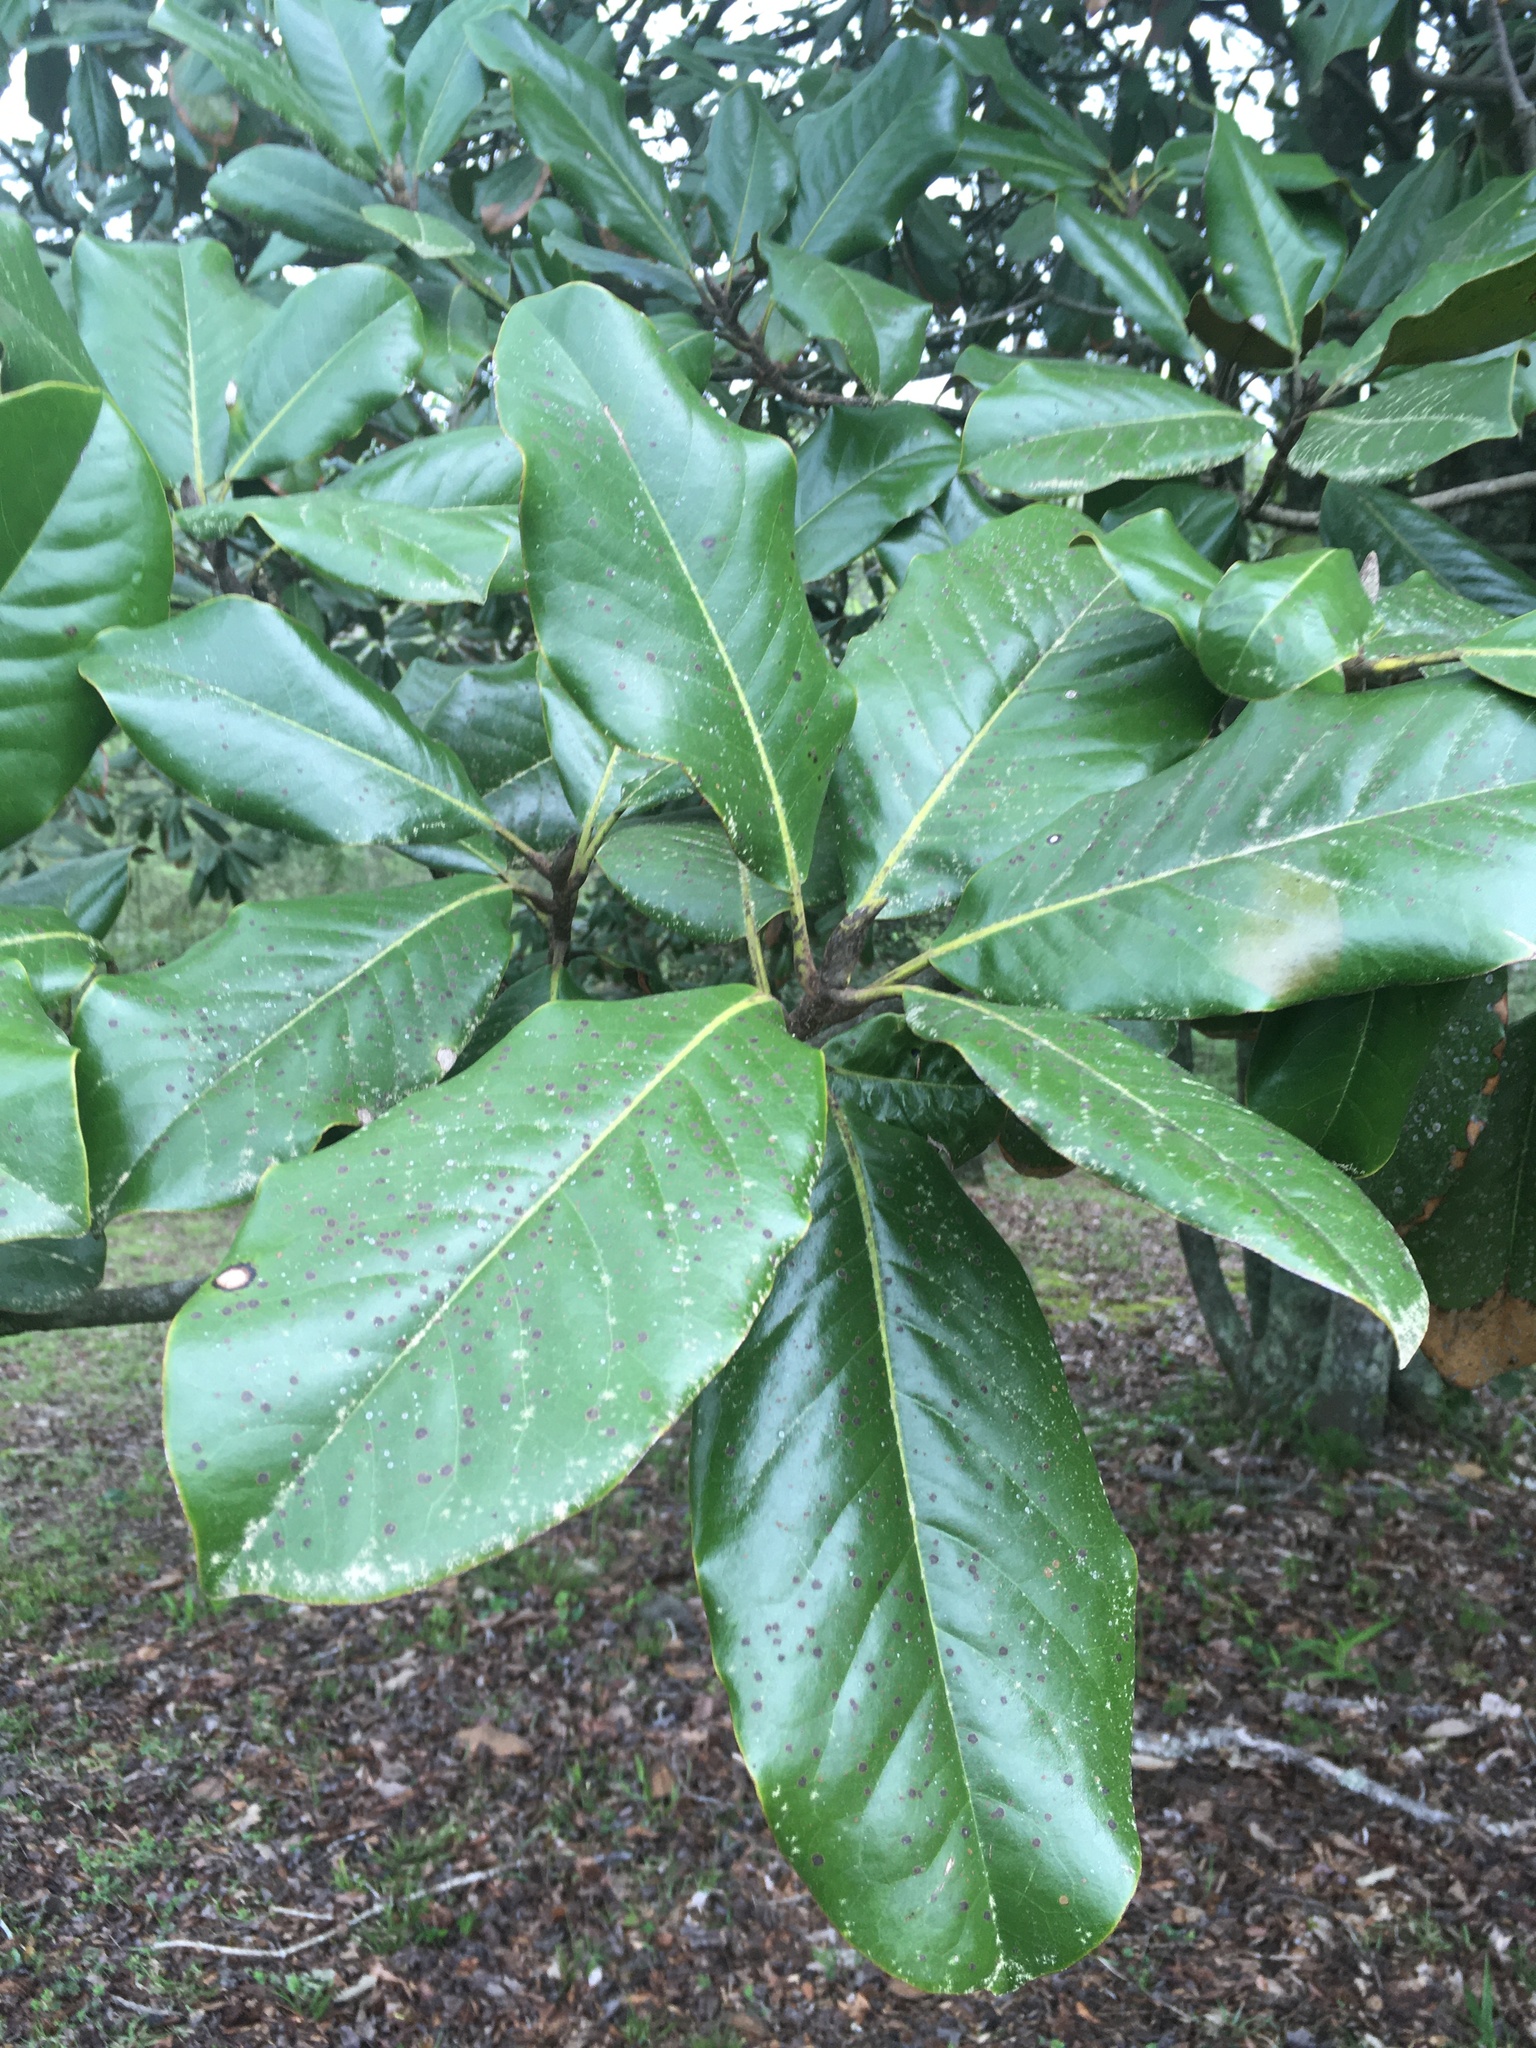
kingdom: Plantae
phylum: Tracheophyta
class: Magnoliopsida
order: Magnoliales
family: Magnoliaceae
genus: Magnolia
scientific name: Magnolia grandiflora
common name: Southern magnolia
